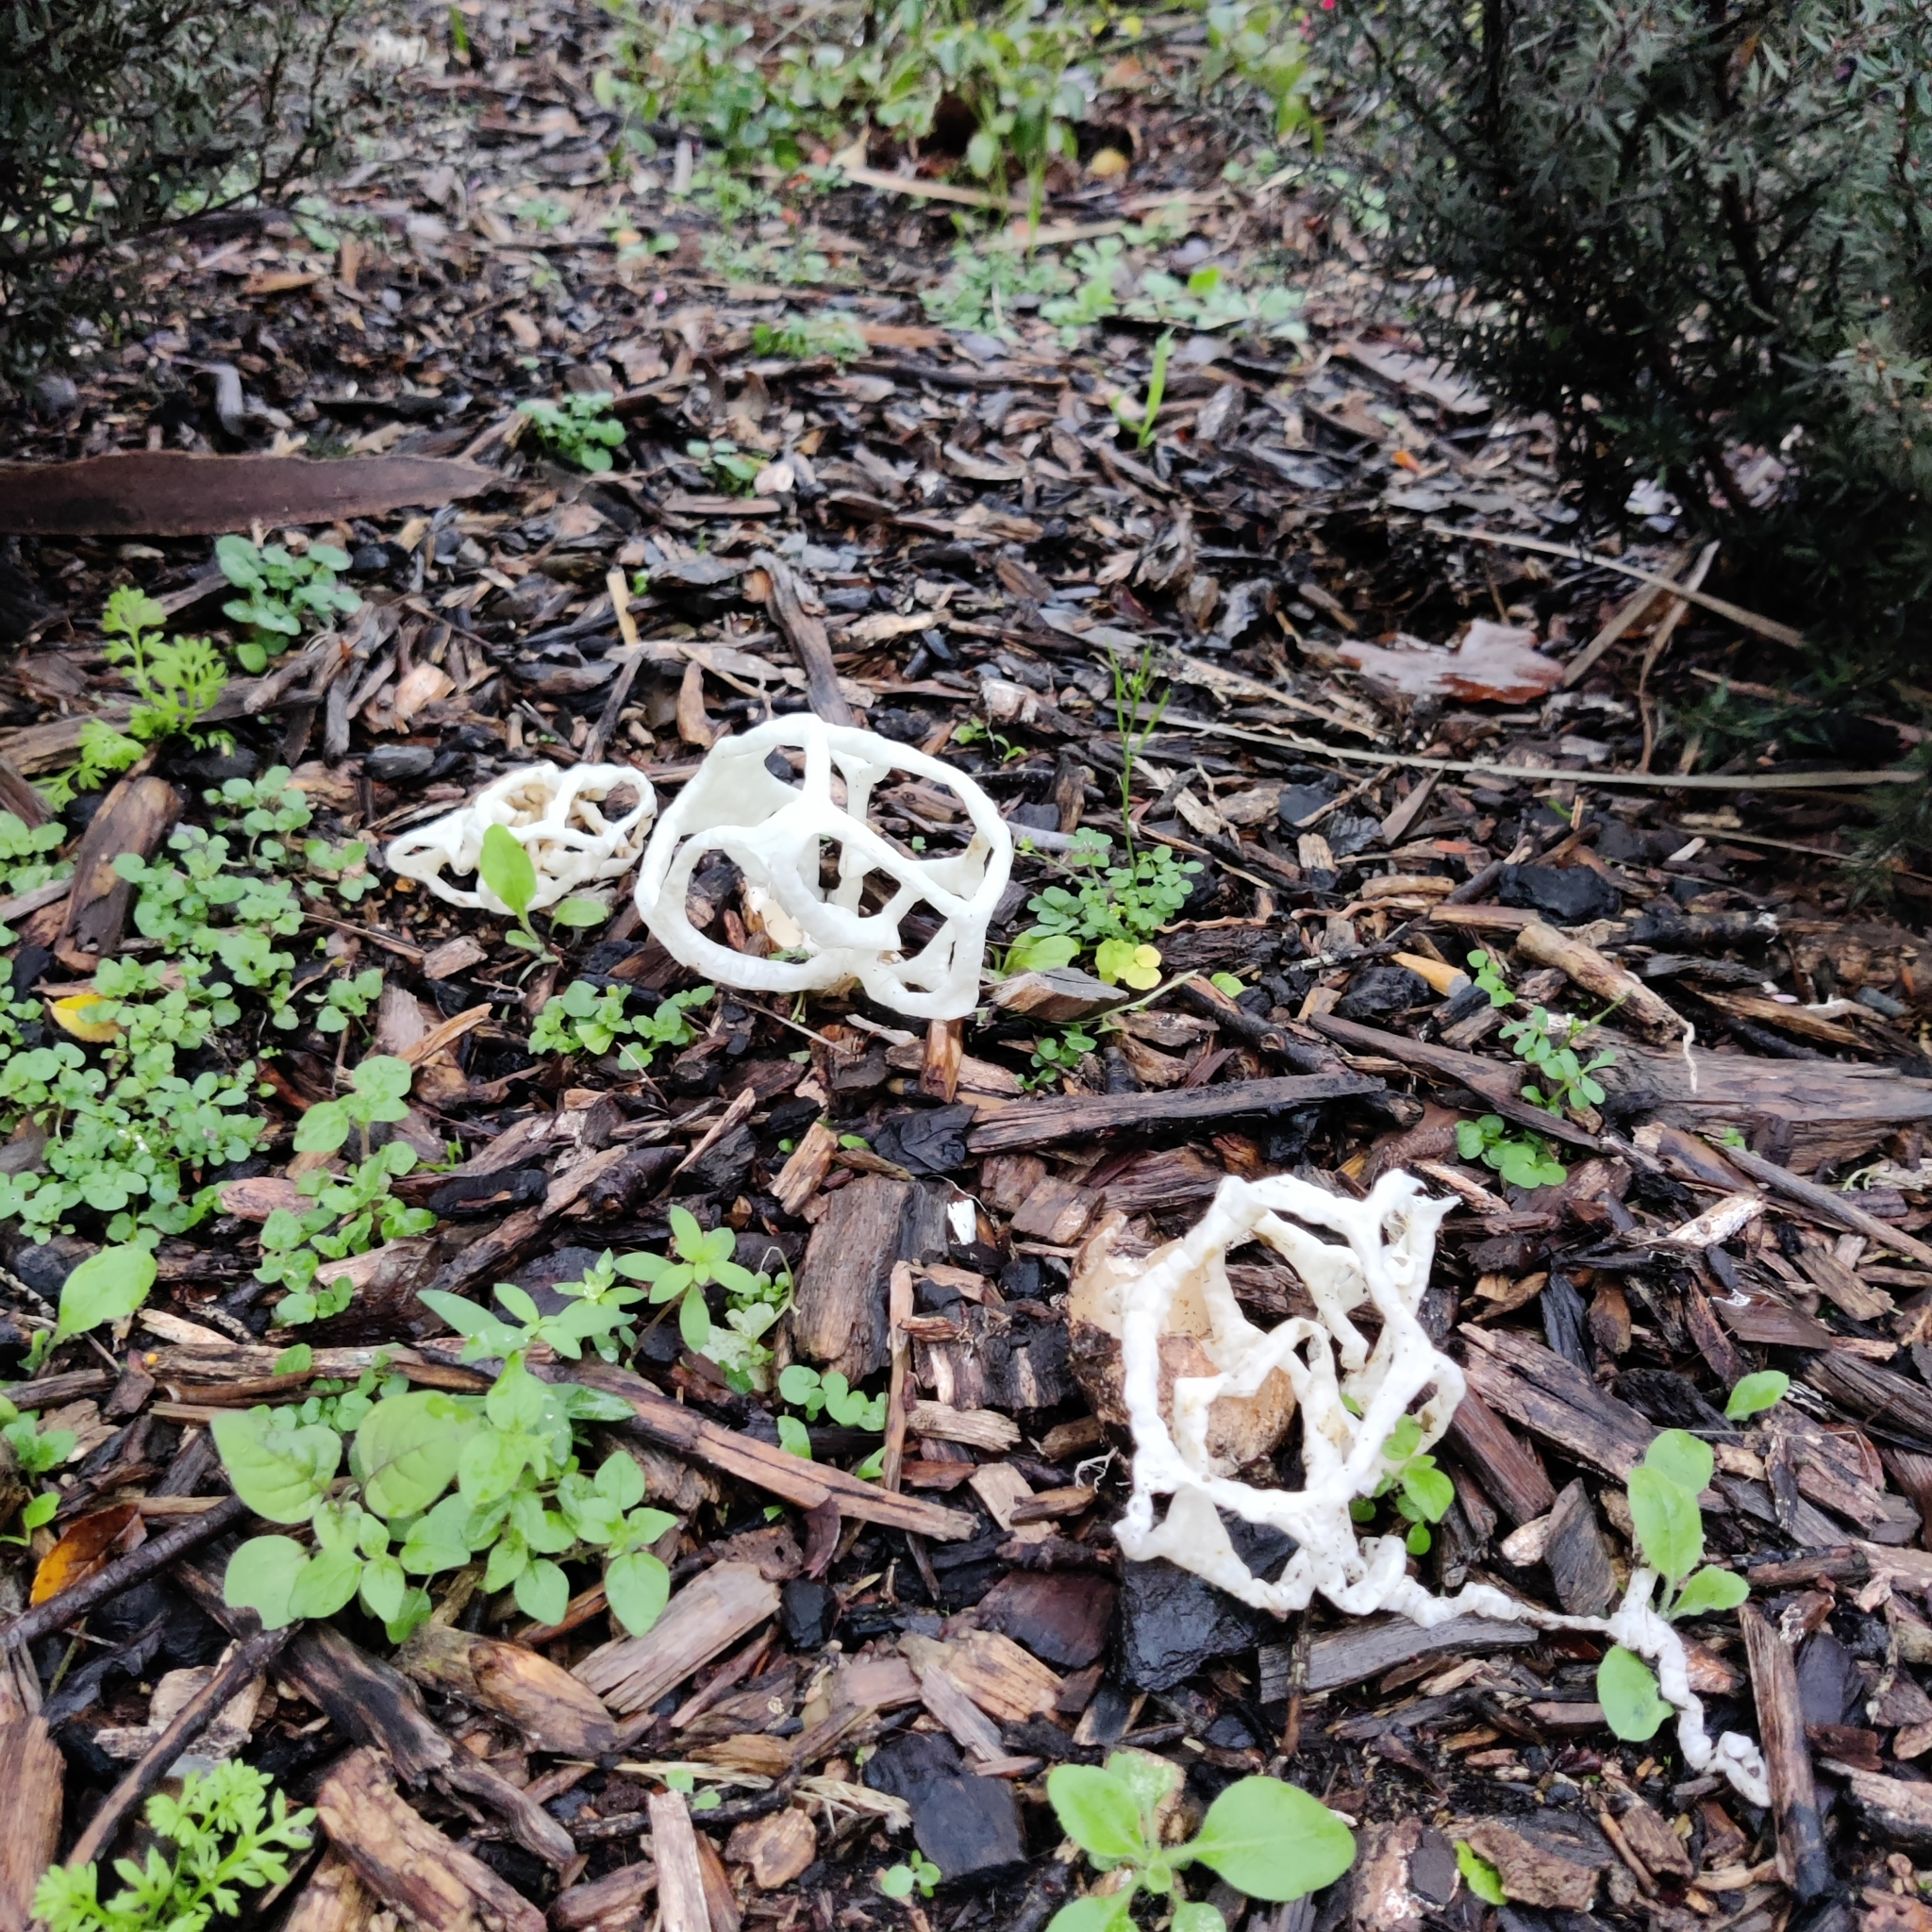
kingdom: Fungi
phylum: Basidiomycota
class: Agaricomycetes
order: Phallales
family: Phallaceae
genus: Ileodictyon
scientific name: Ileodictyon cibarium
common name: Basket fungus
